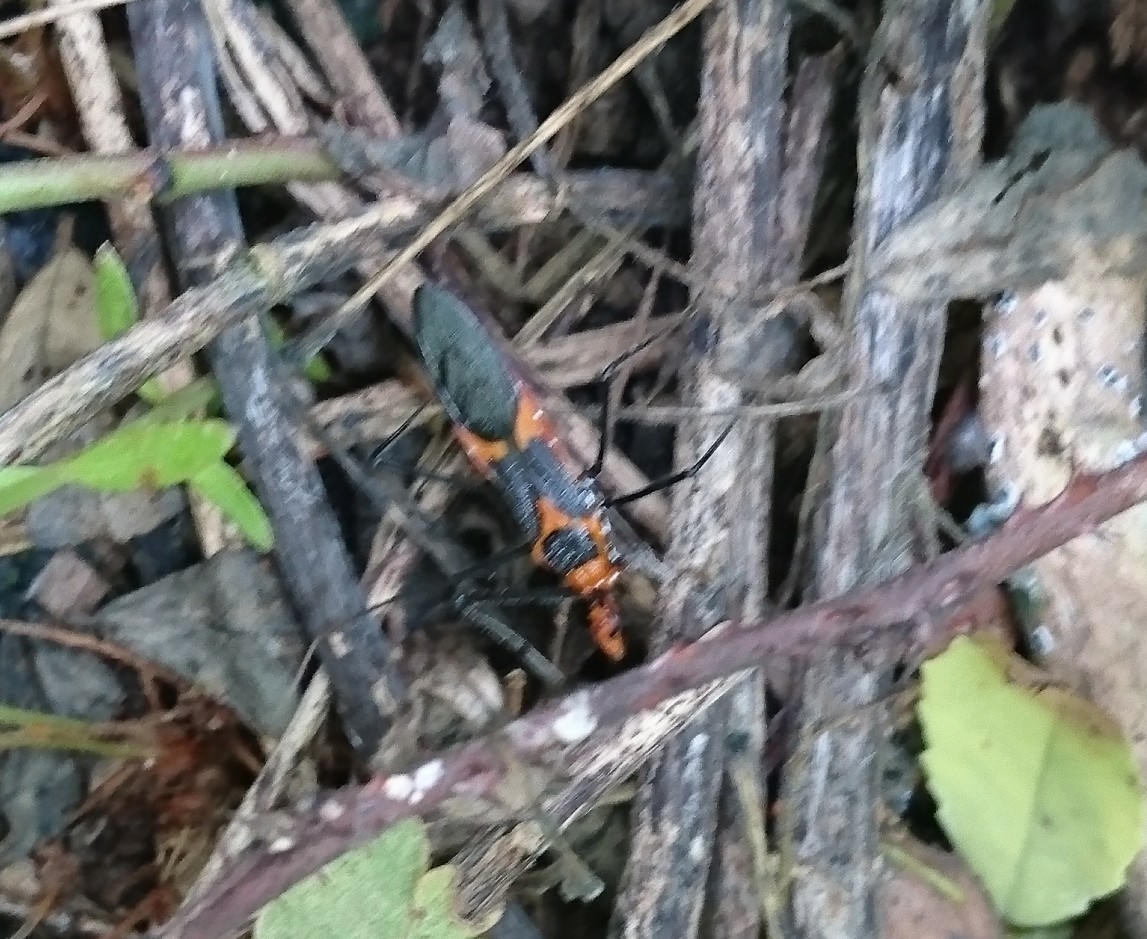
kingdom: Animalia
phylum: Arthropoda
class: Insecta
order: Hemiptera
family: Reduviidae
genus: Zelus
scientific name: Zelus longipes
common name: Milkweed assassin bug
